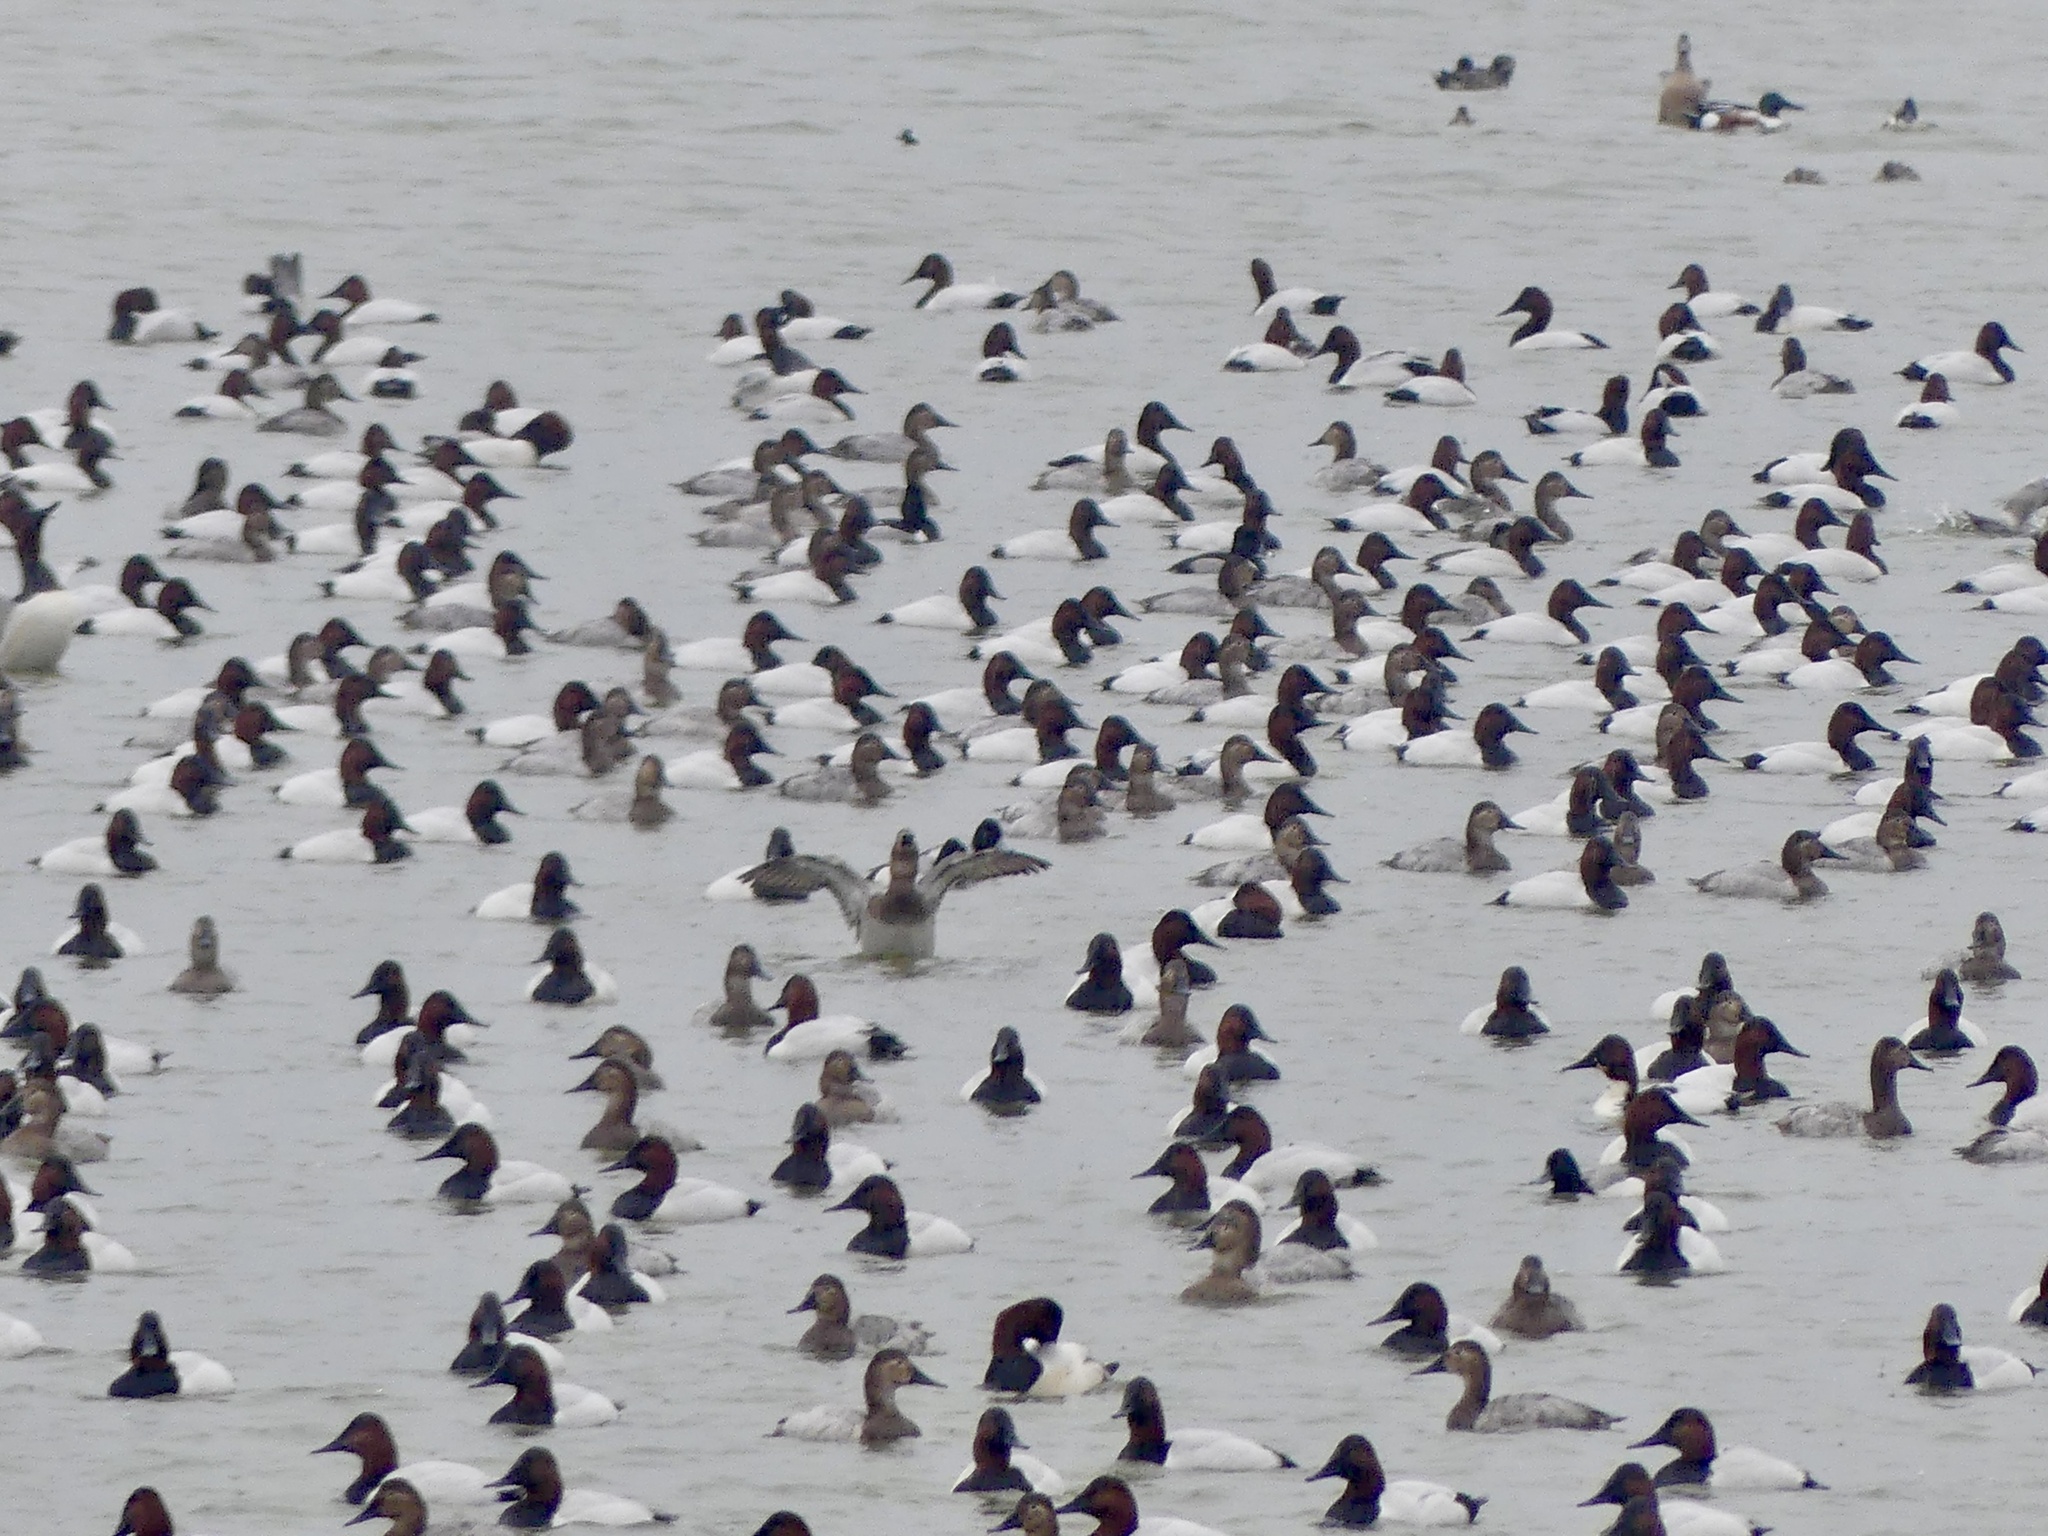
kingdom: Animalia
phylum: Chordata
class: Aves
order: Anseriformes
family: Anatidae
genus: Aythya
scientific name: Aythya valisineria
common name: Canvasback
